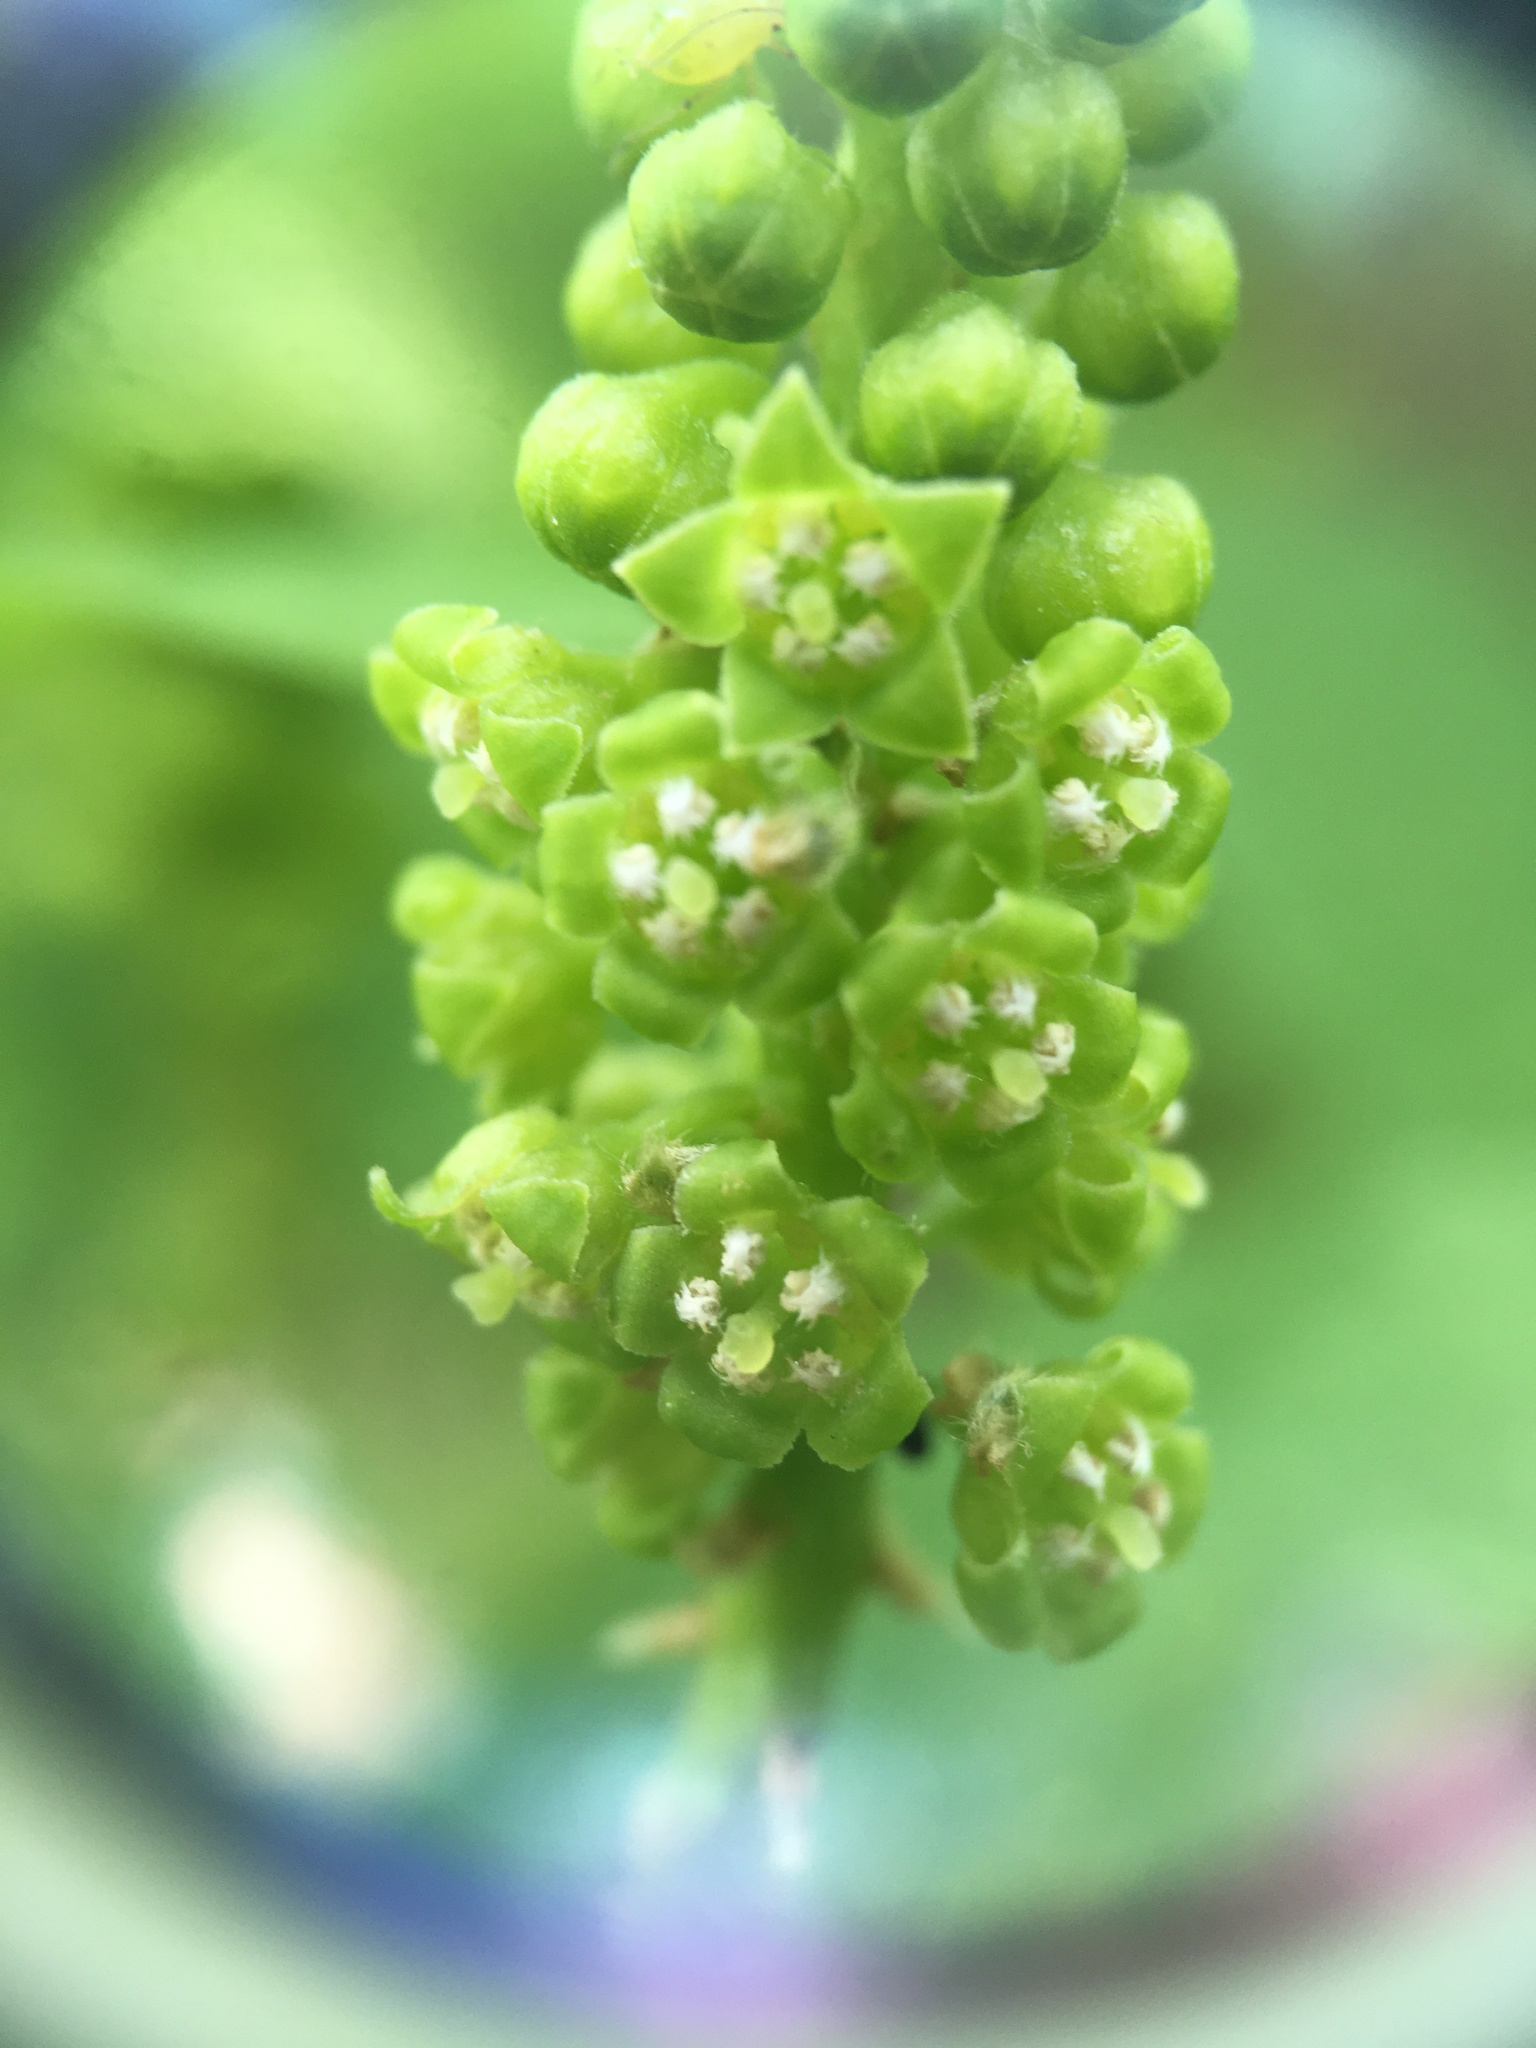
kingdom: Plantae
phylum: Tracheophyta
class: Magnoliopsida
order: Santalales
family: Cervantesiaceae
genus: Pyrularia
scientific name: Pyrularia pubera
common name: Oilnut
